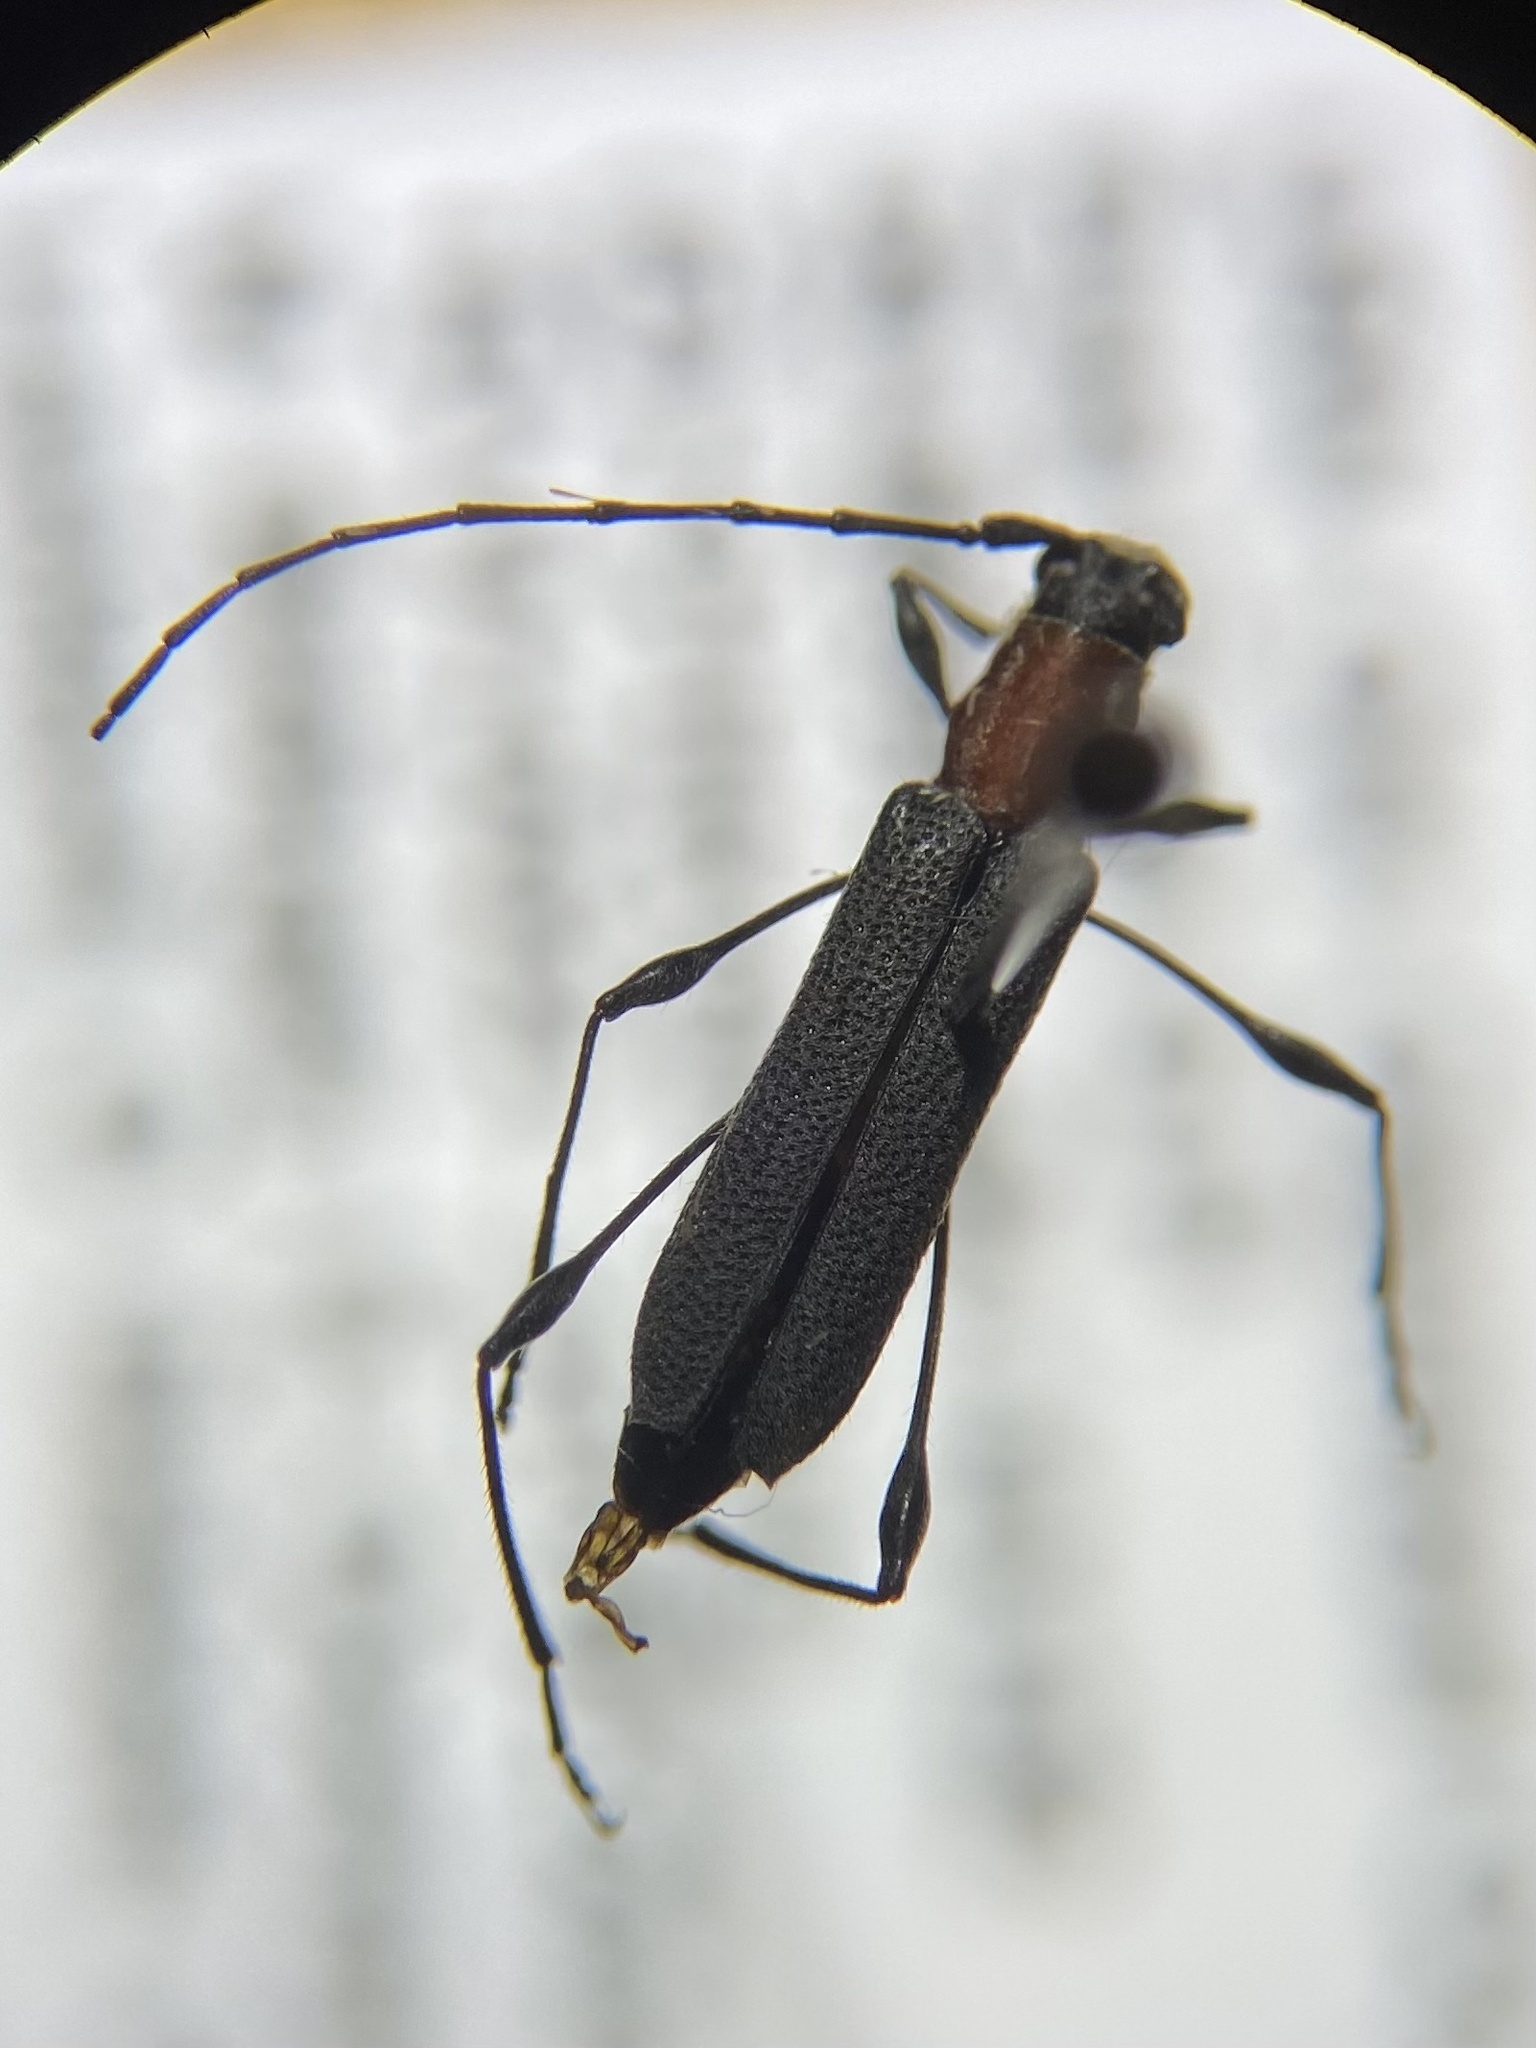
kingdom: Animalia
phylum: Arthropoda
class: Insecta
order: Coleoptera
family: Cerambycidae
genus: Rhopalophora
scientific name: Rhopalophora longipes
